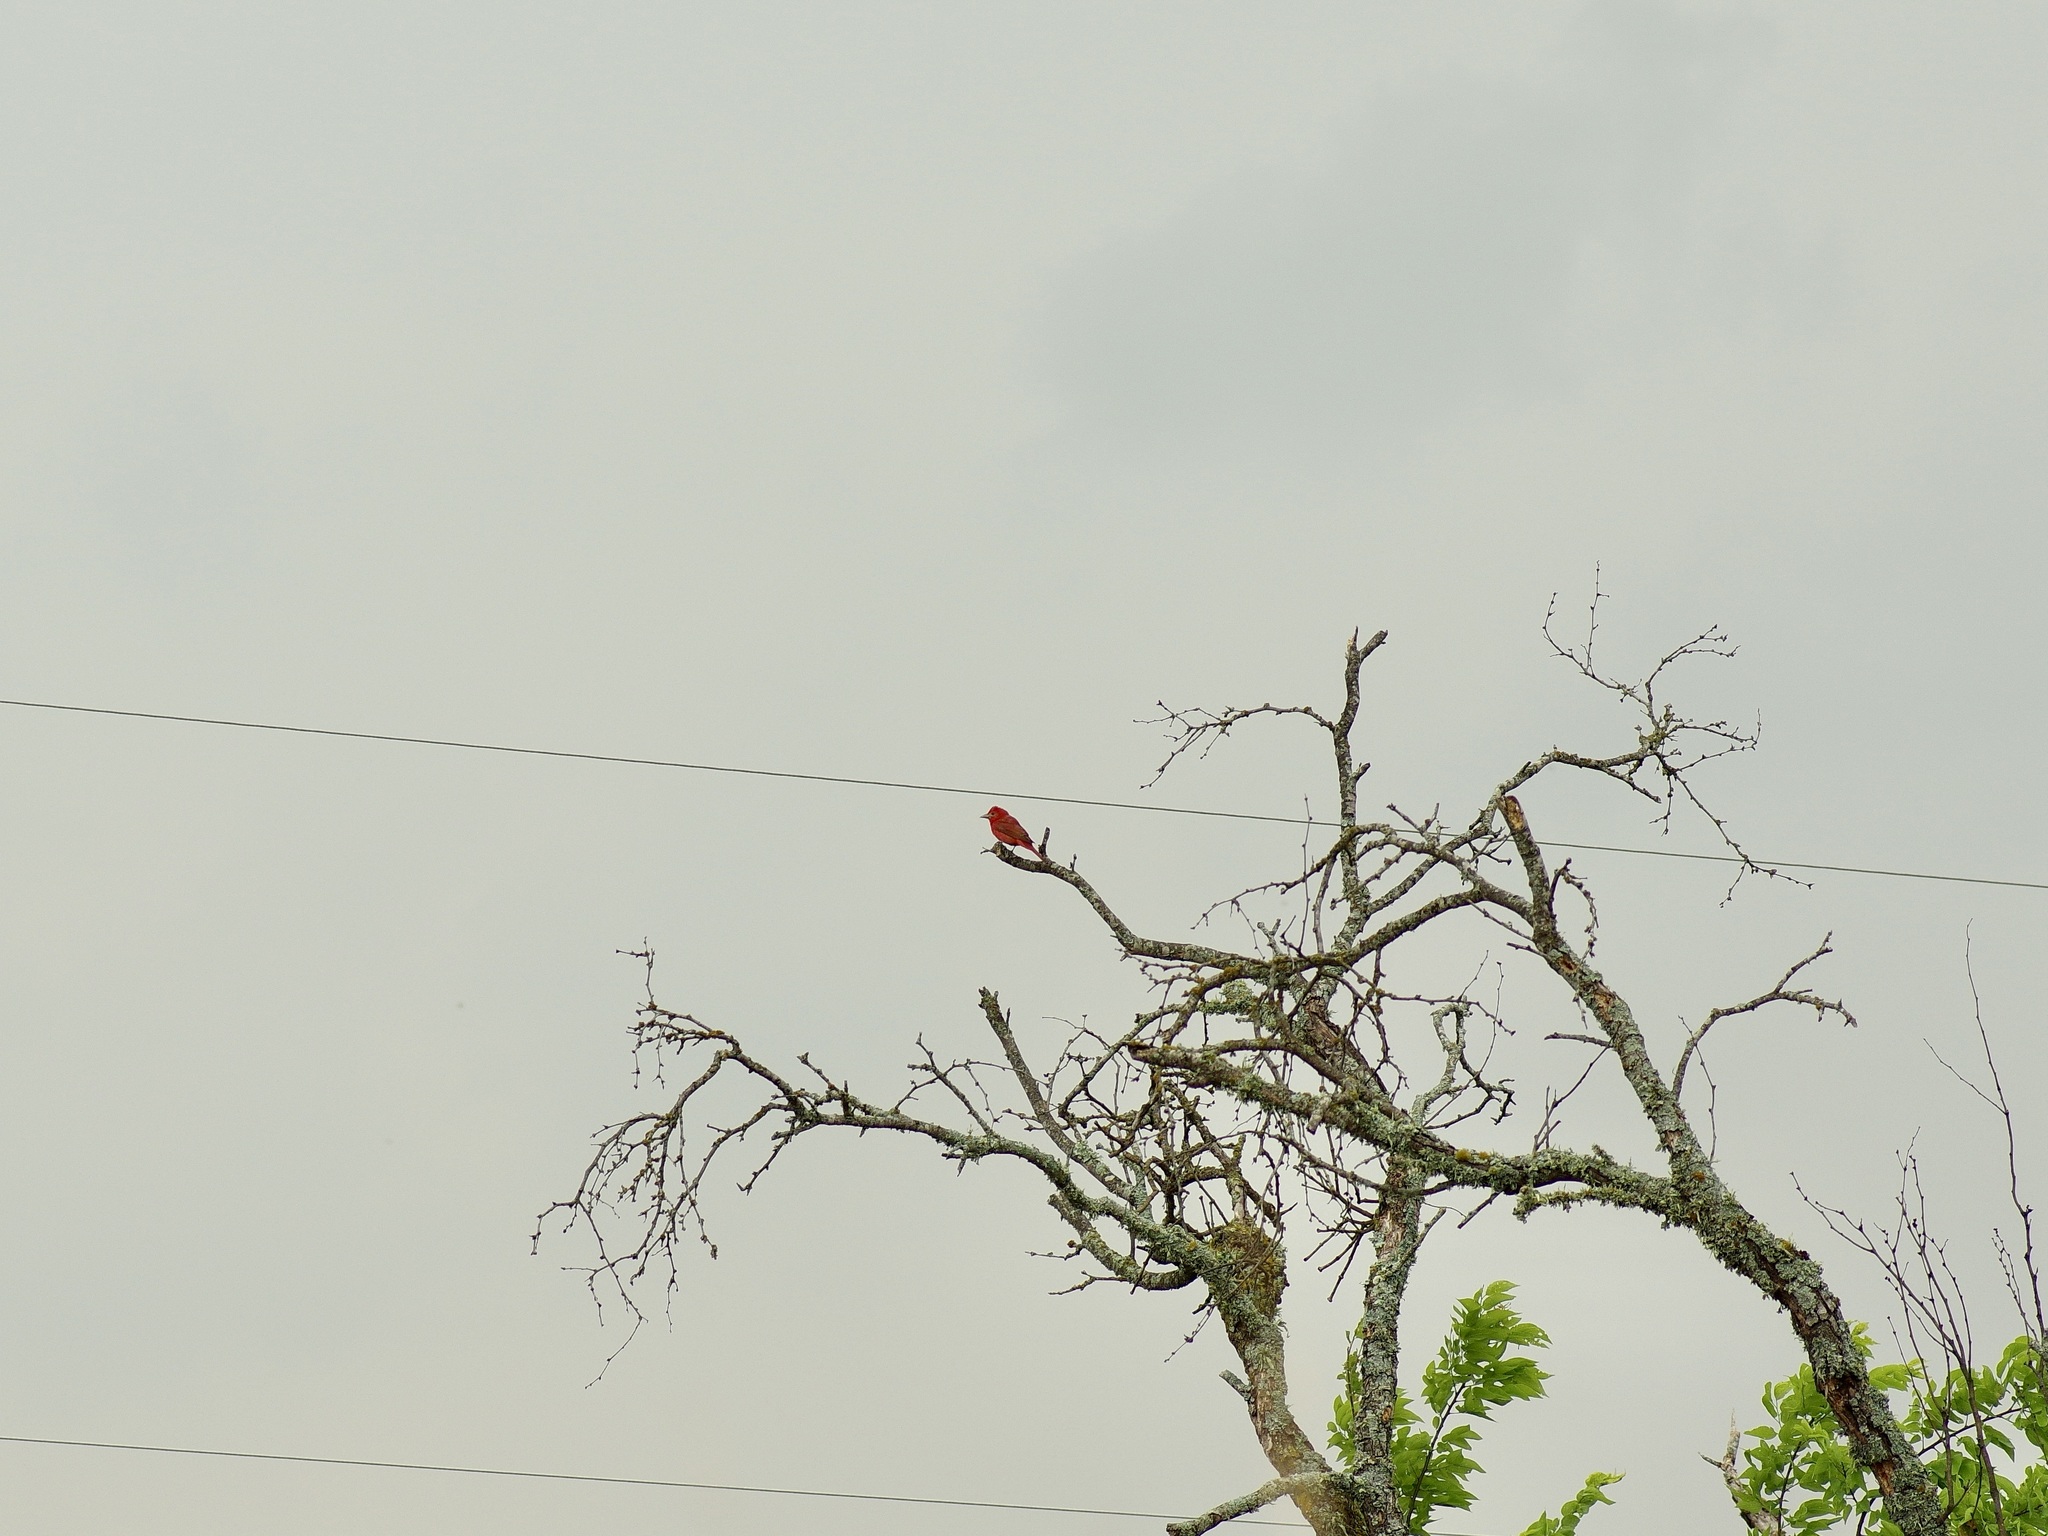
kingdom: Animalia
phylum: Chordata
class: Aves
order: Passeriformes
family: Cardinalidae
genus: Piranga
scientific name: Piranga rubra
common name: Summer tanager
